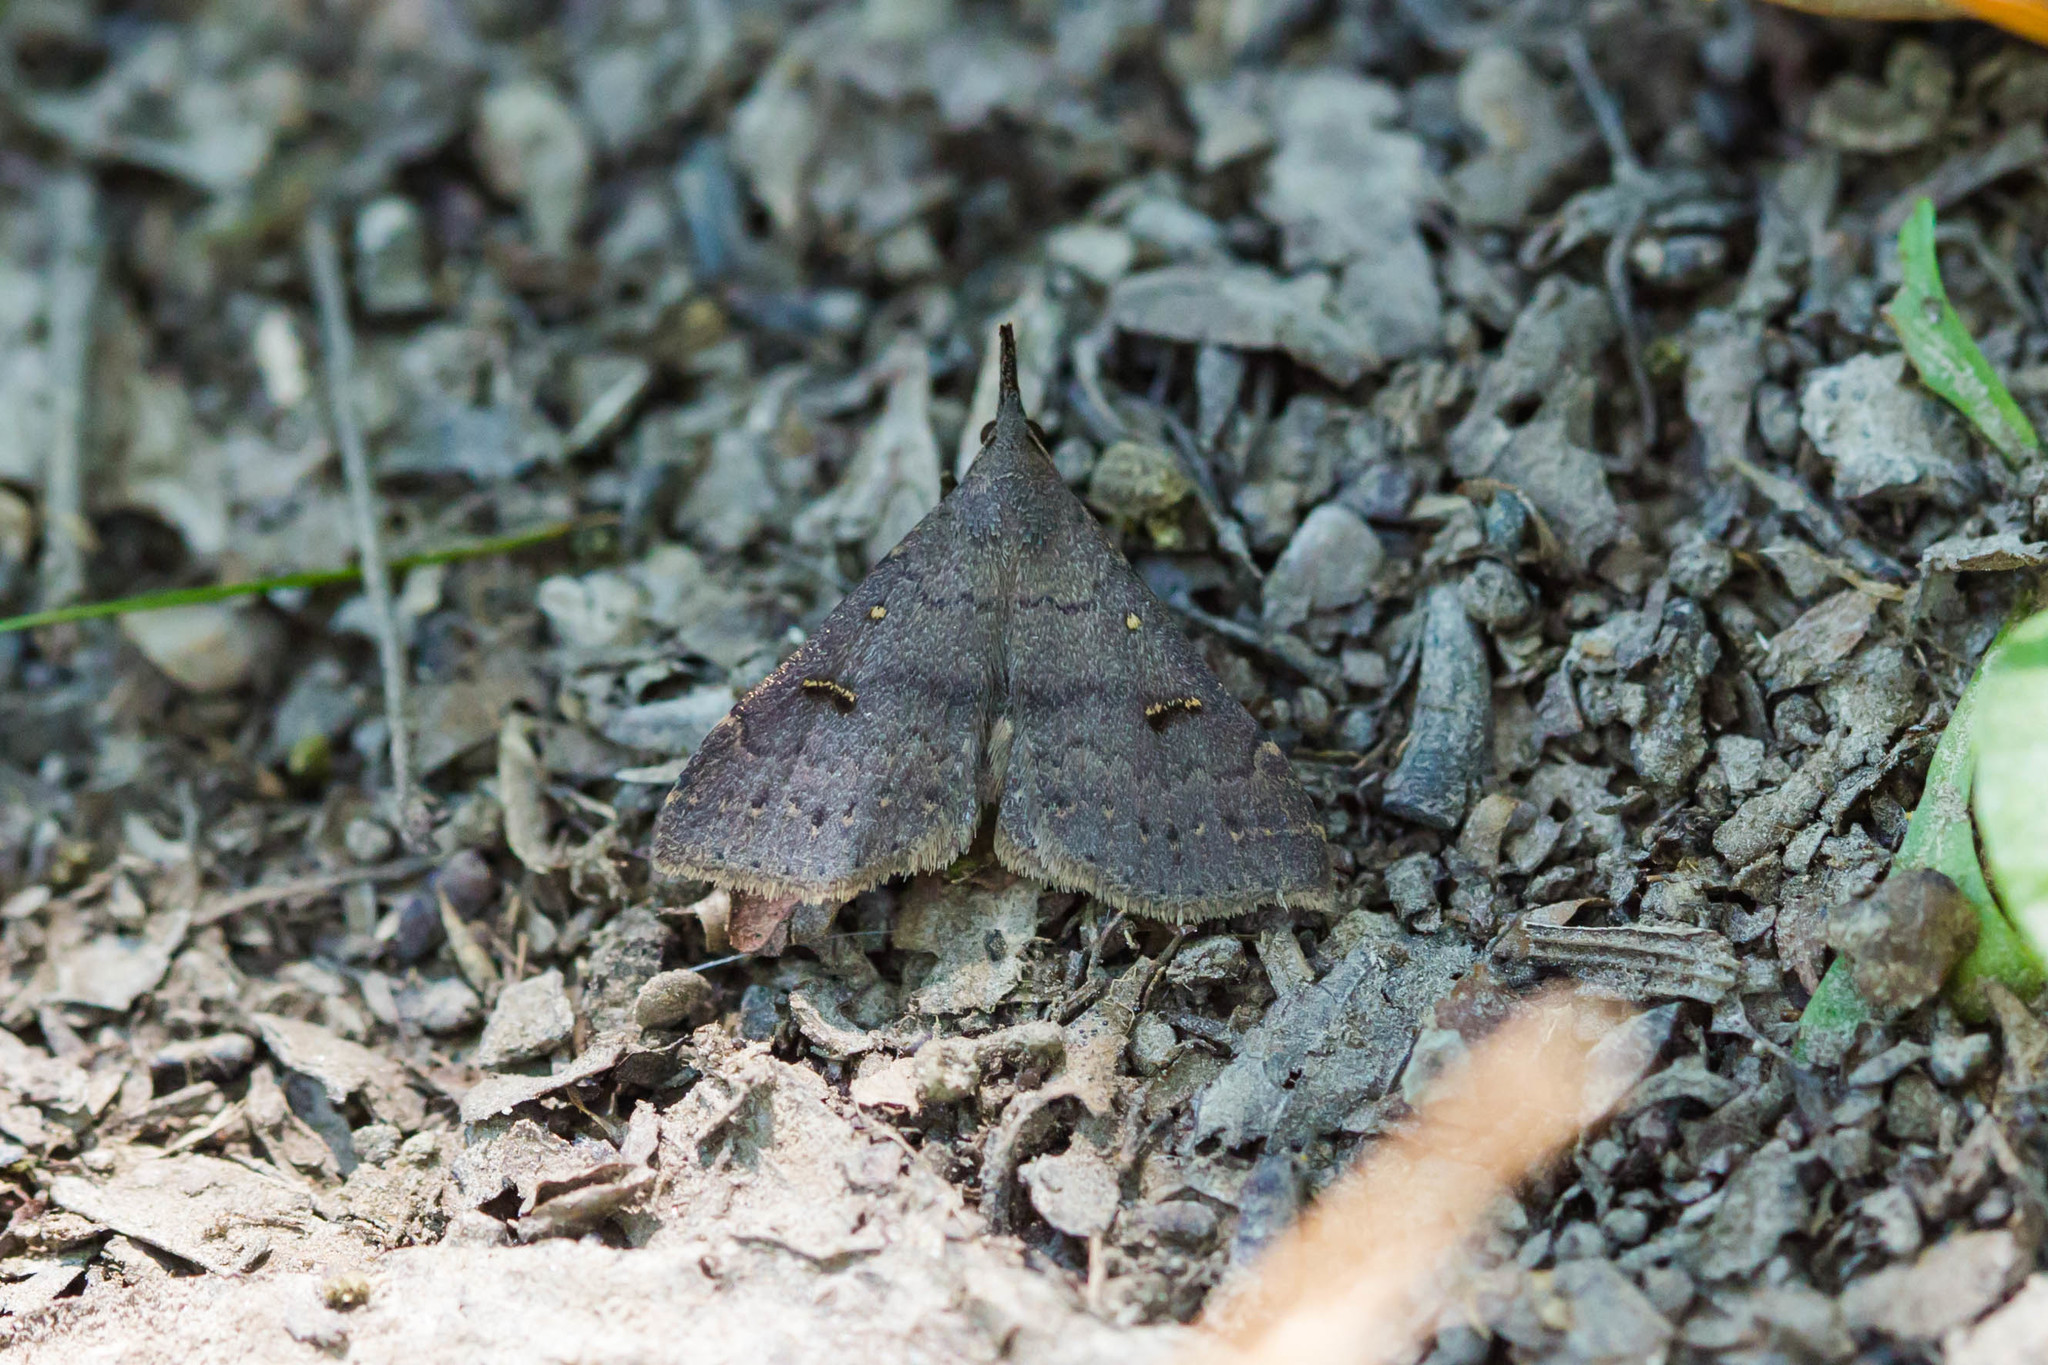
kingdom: Animalia
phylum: Arthropoda
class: Insecta
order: Lepidoptera
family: Erebidae
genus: Renia
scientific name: Renia sobrialis
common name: Sober renia moth
